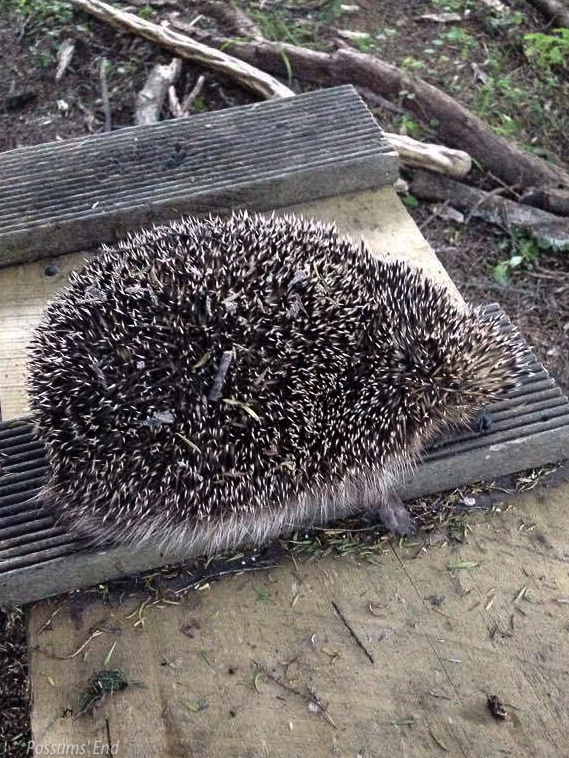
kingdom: Animalia
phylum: Chordata
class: Mammalia
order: Erinaceomorpha
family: Erinaceidae
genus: Erinaceus
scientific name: Erinaceus europaeus
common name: West european hedgehog
